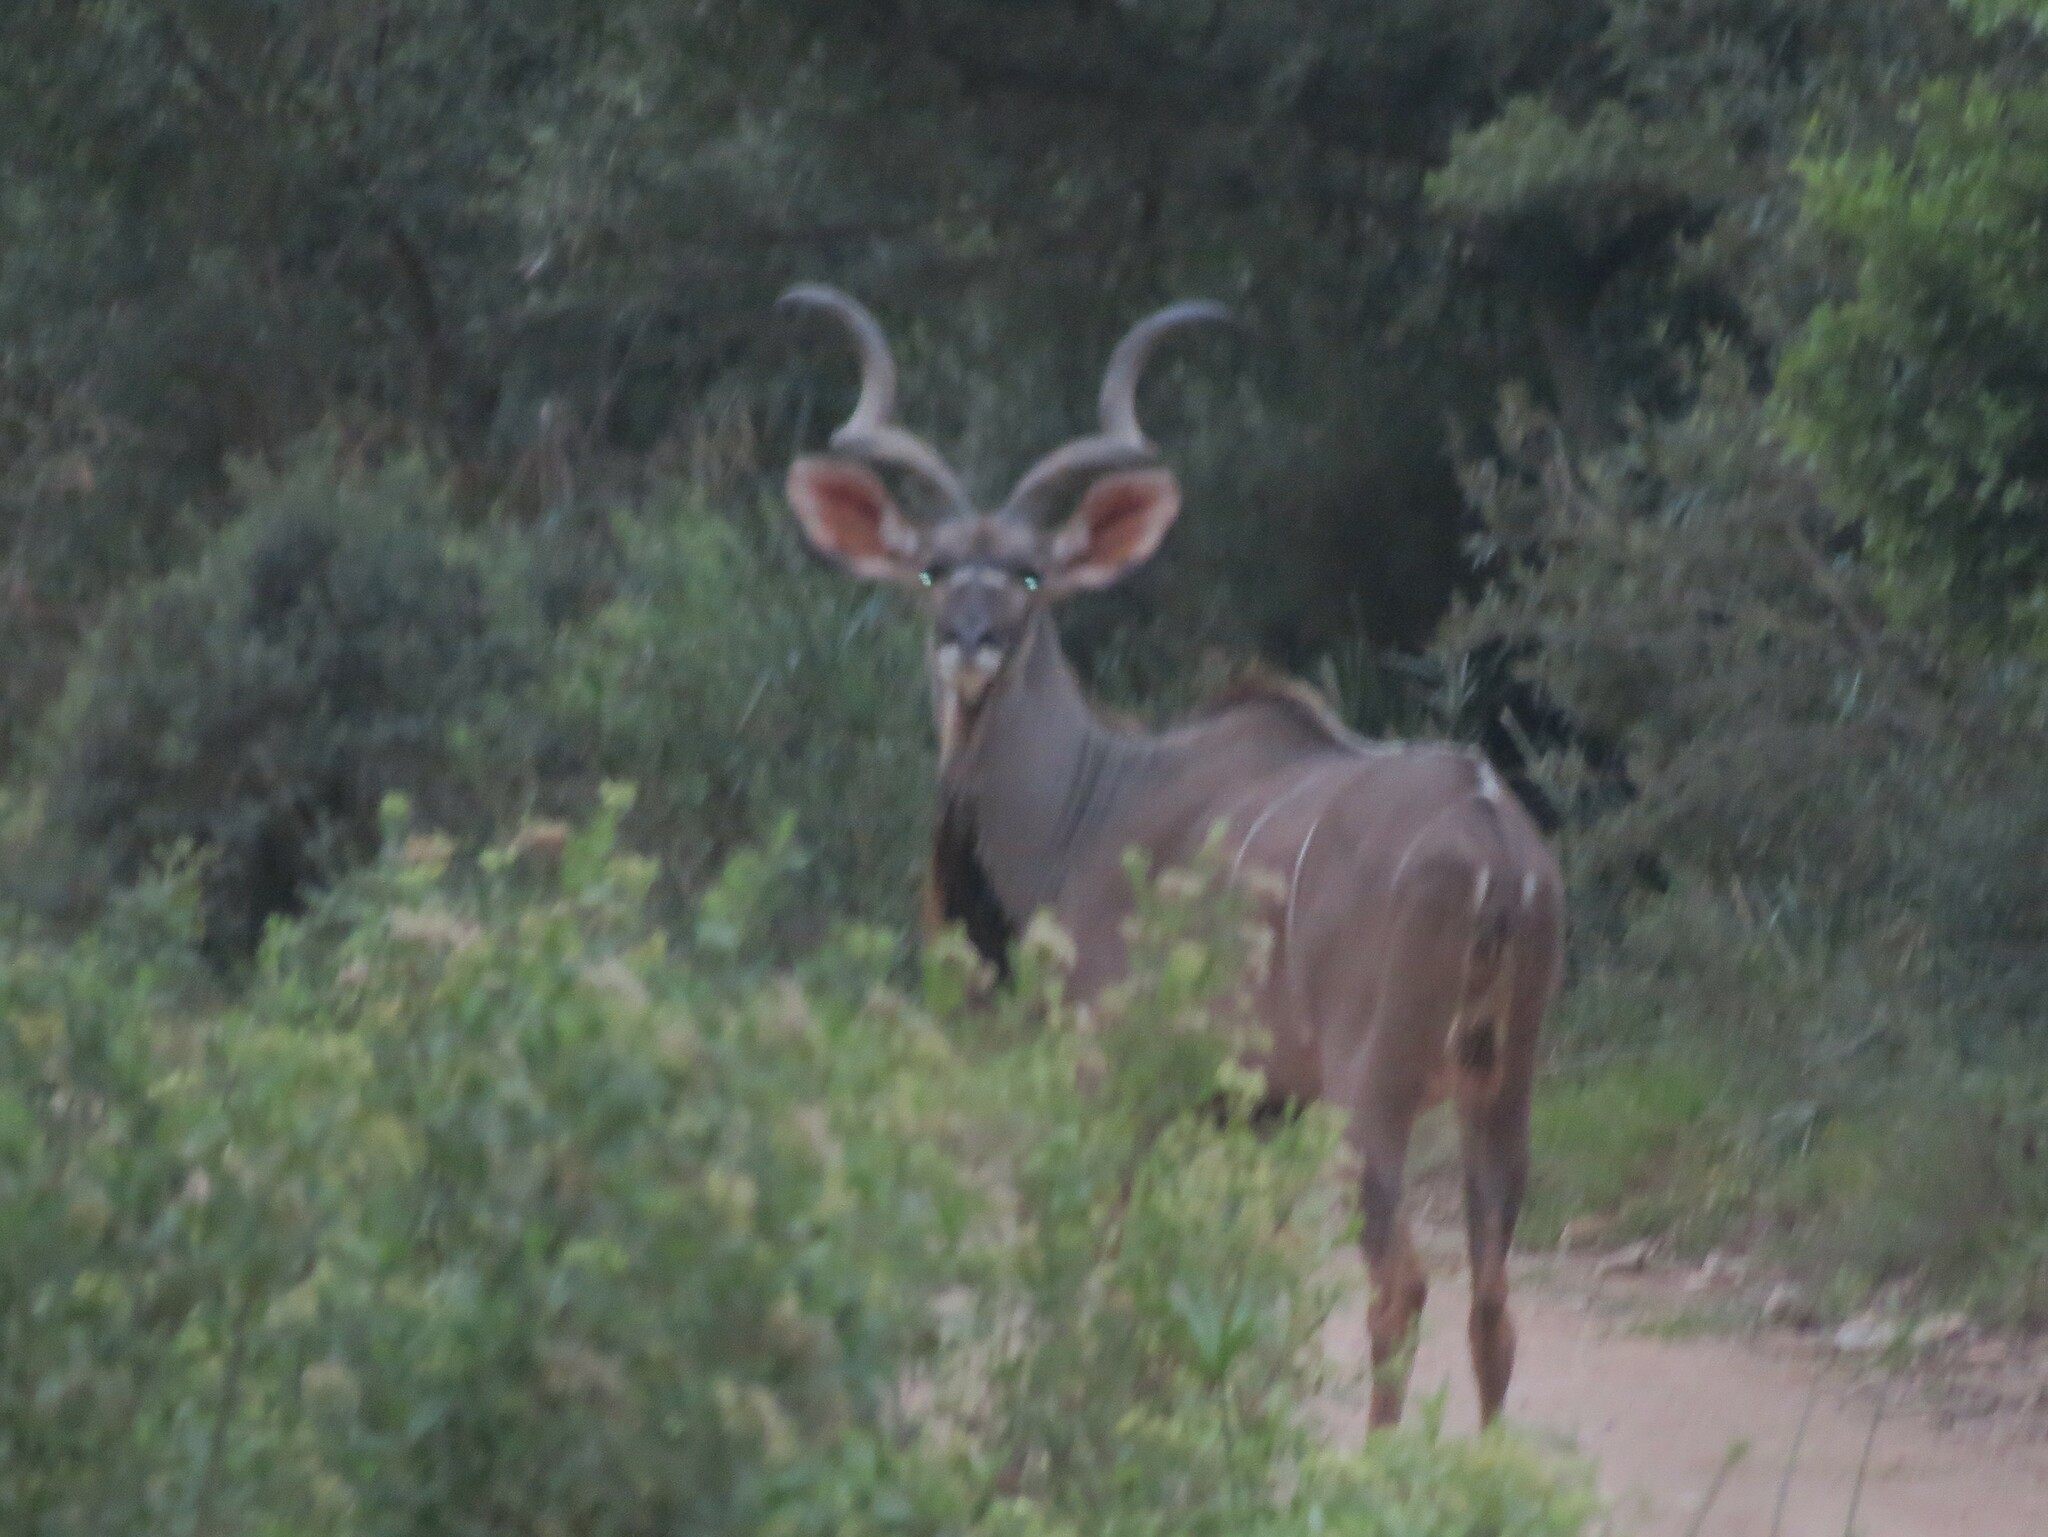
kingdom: Animalia
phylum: Chordata
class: Mammalia
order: Artiodactyla
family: Bovidae
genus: Tragelaphus
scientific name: Tragelaphus strepsiceros
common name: Greater kudu
